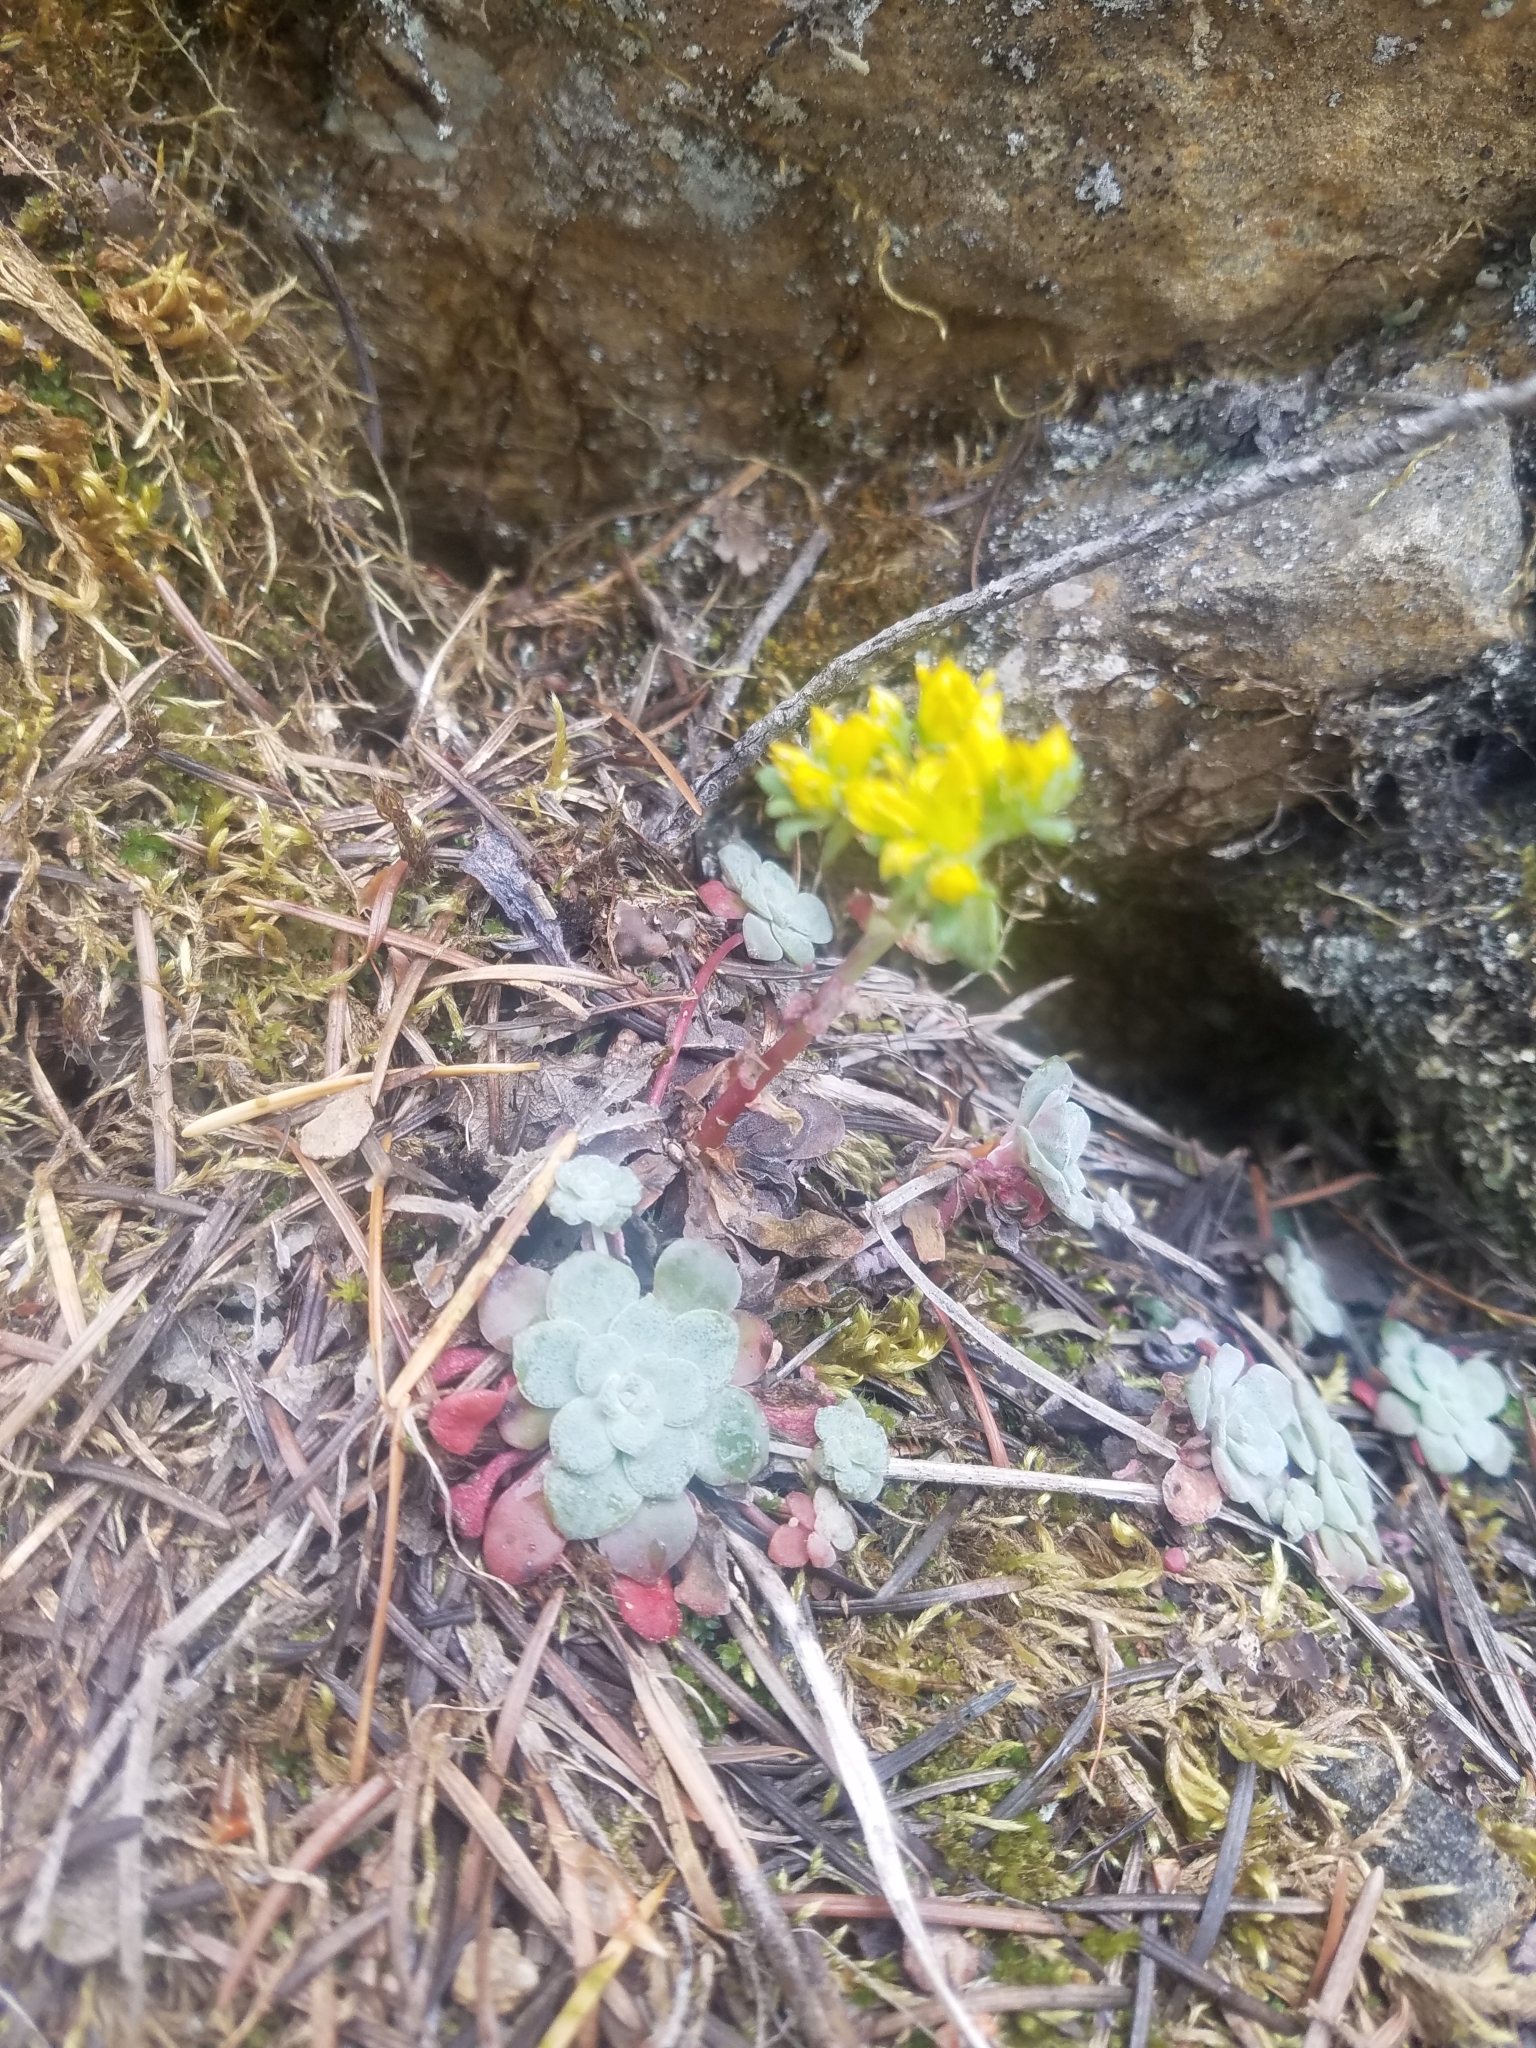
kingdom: Plantae
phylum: Tracheophyta
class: Magnoliopsida
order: Saxifragales
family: Crassulaceae
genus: Sedum
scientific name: Sedum spathulifolium
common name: Colorado stonecrop
